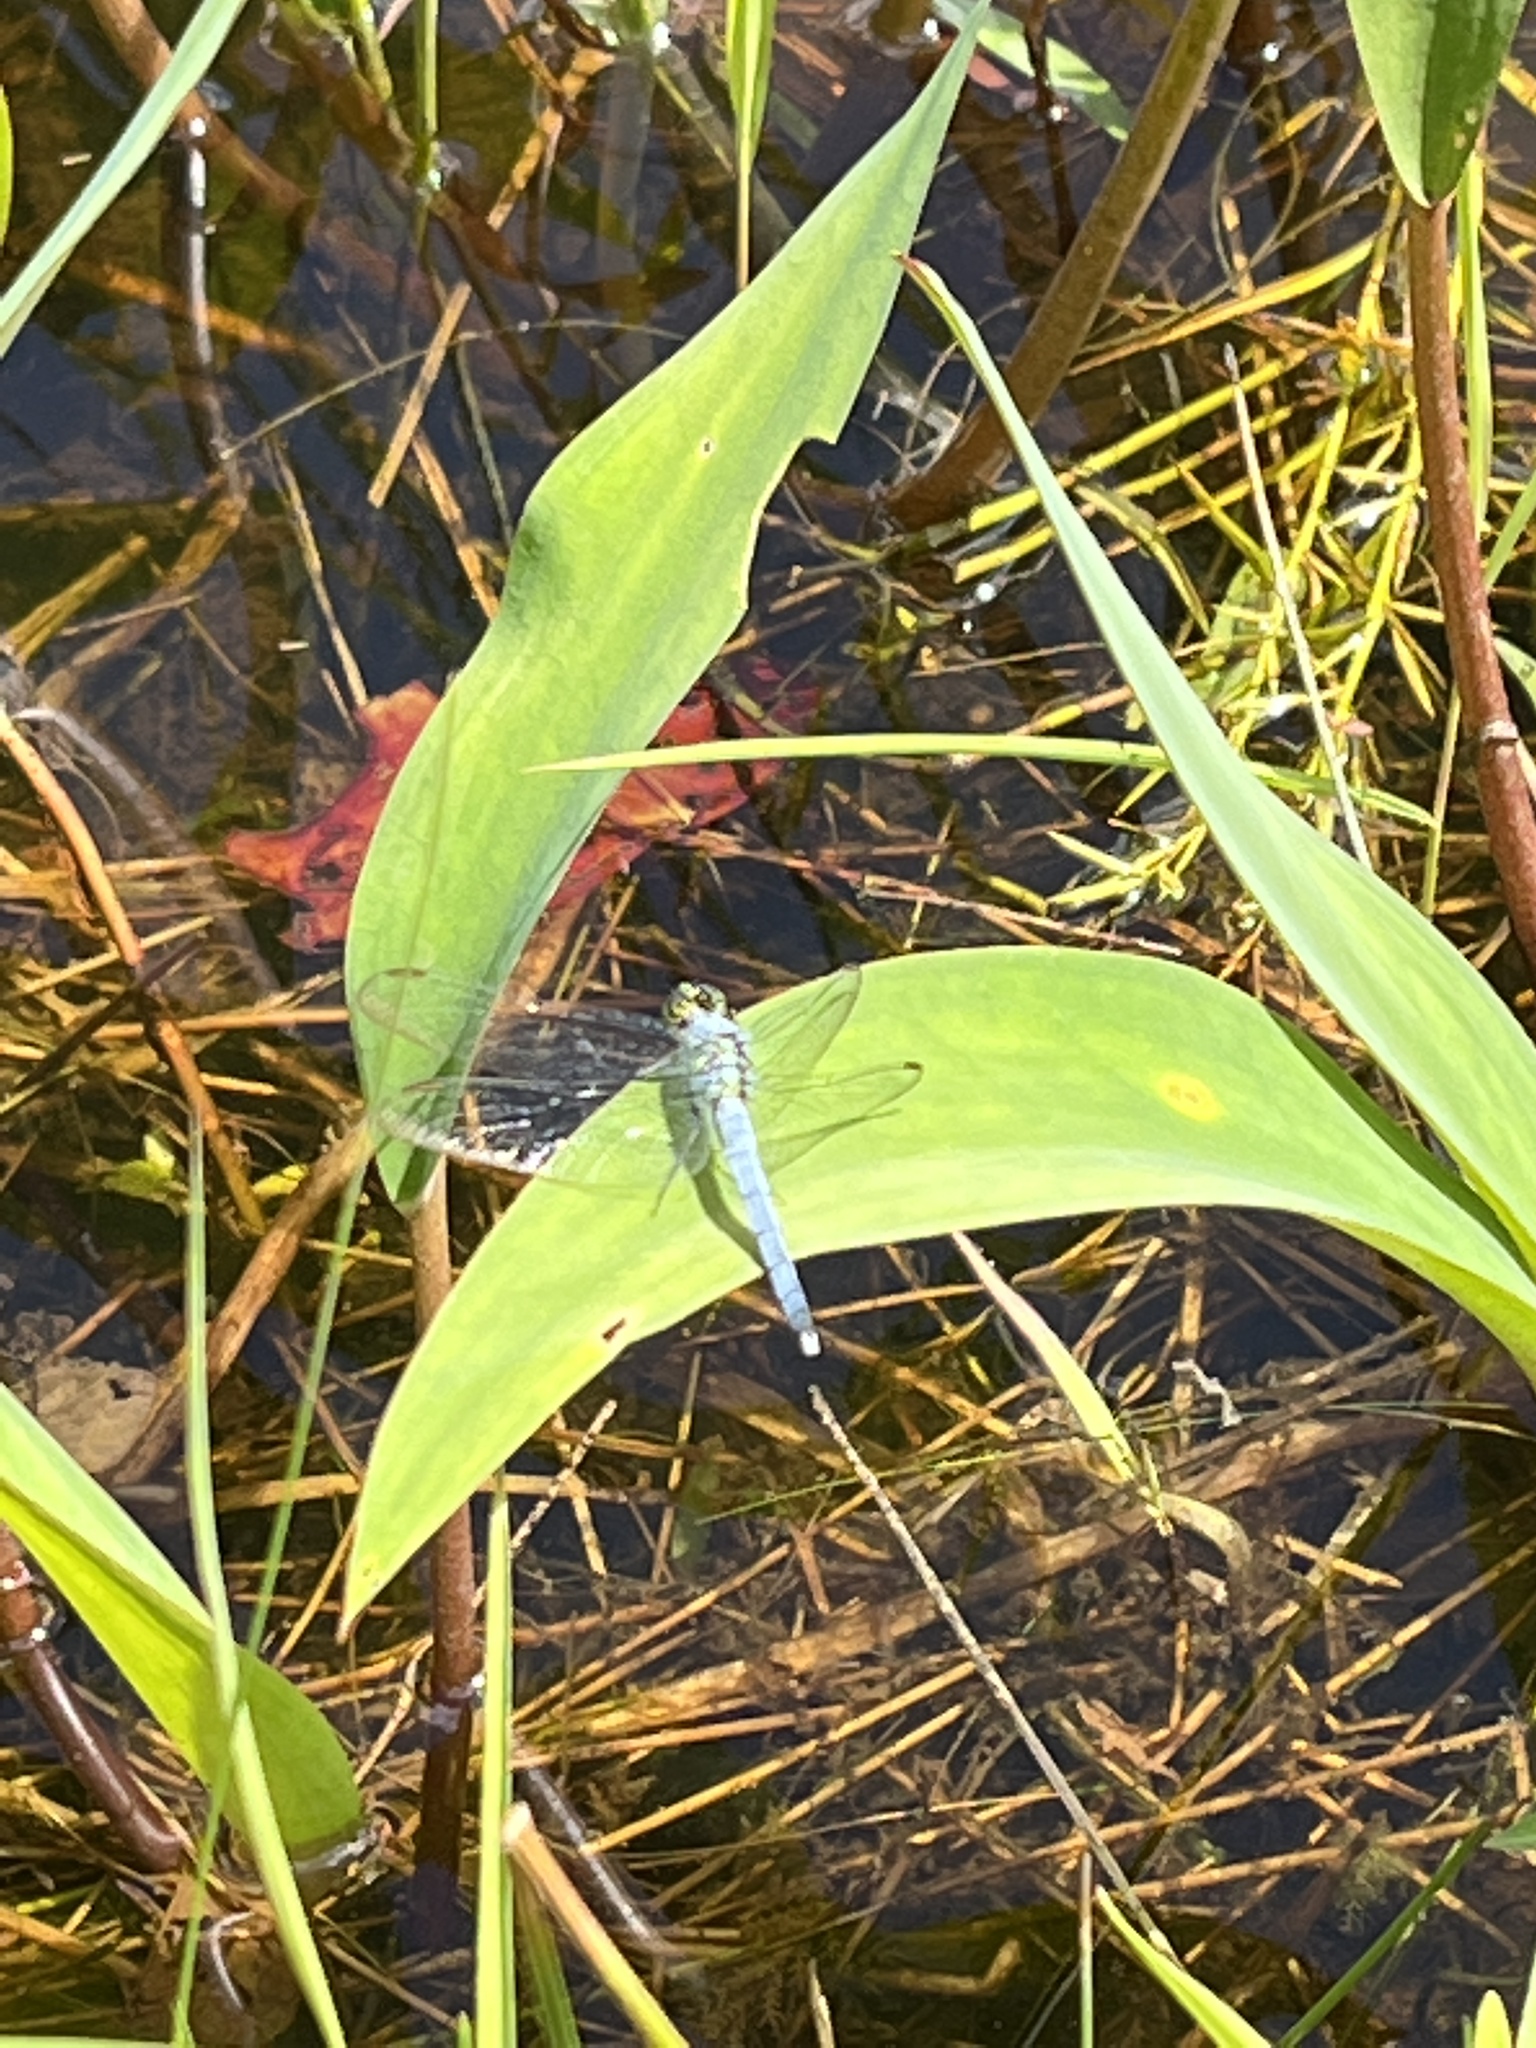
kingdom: Animalia
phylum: Arthropoda
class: Insecta
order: Odonata
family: Libellulidae
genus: Erythemis
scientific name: Erythemis simplicicollis
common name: Eastern pondhawk
